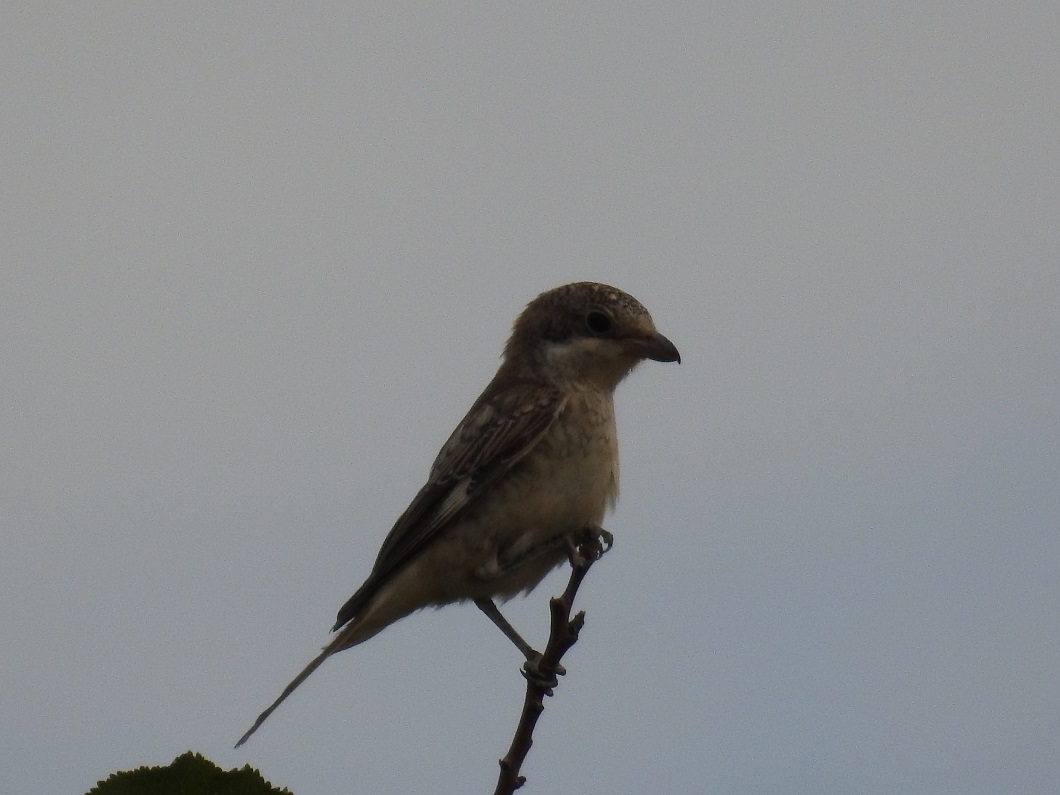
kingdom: Animalia
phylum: Chordata
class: Aves
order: Passeriformes
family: Laniidae
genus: Lanius
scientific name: Lanius senator
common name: Woodchat shrike
